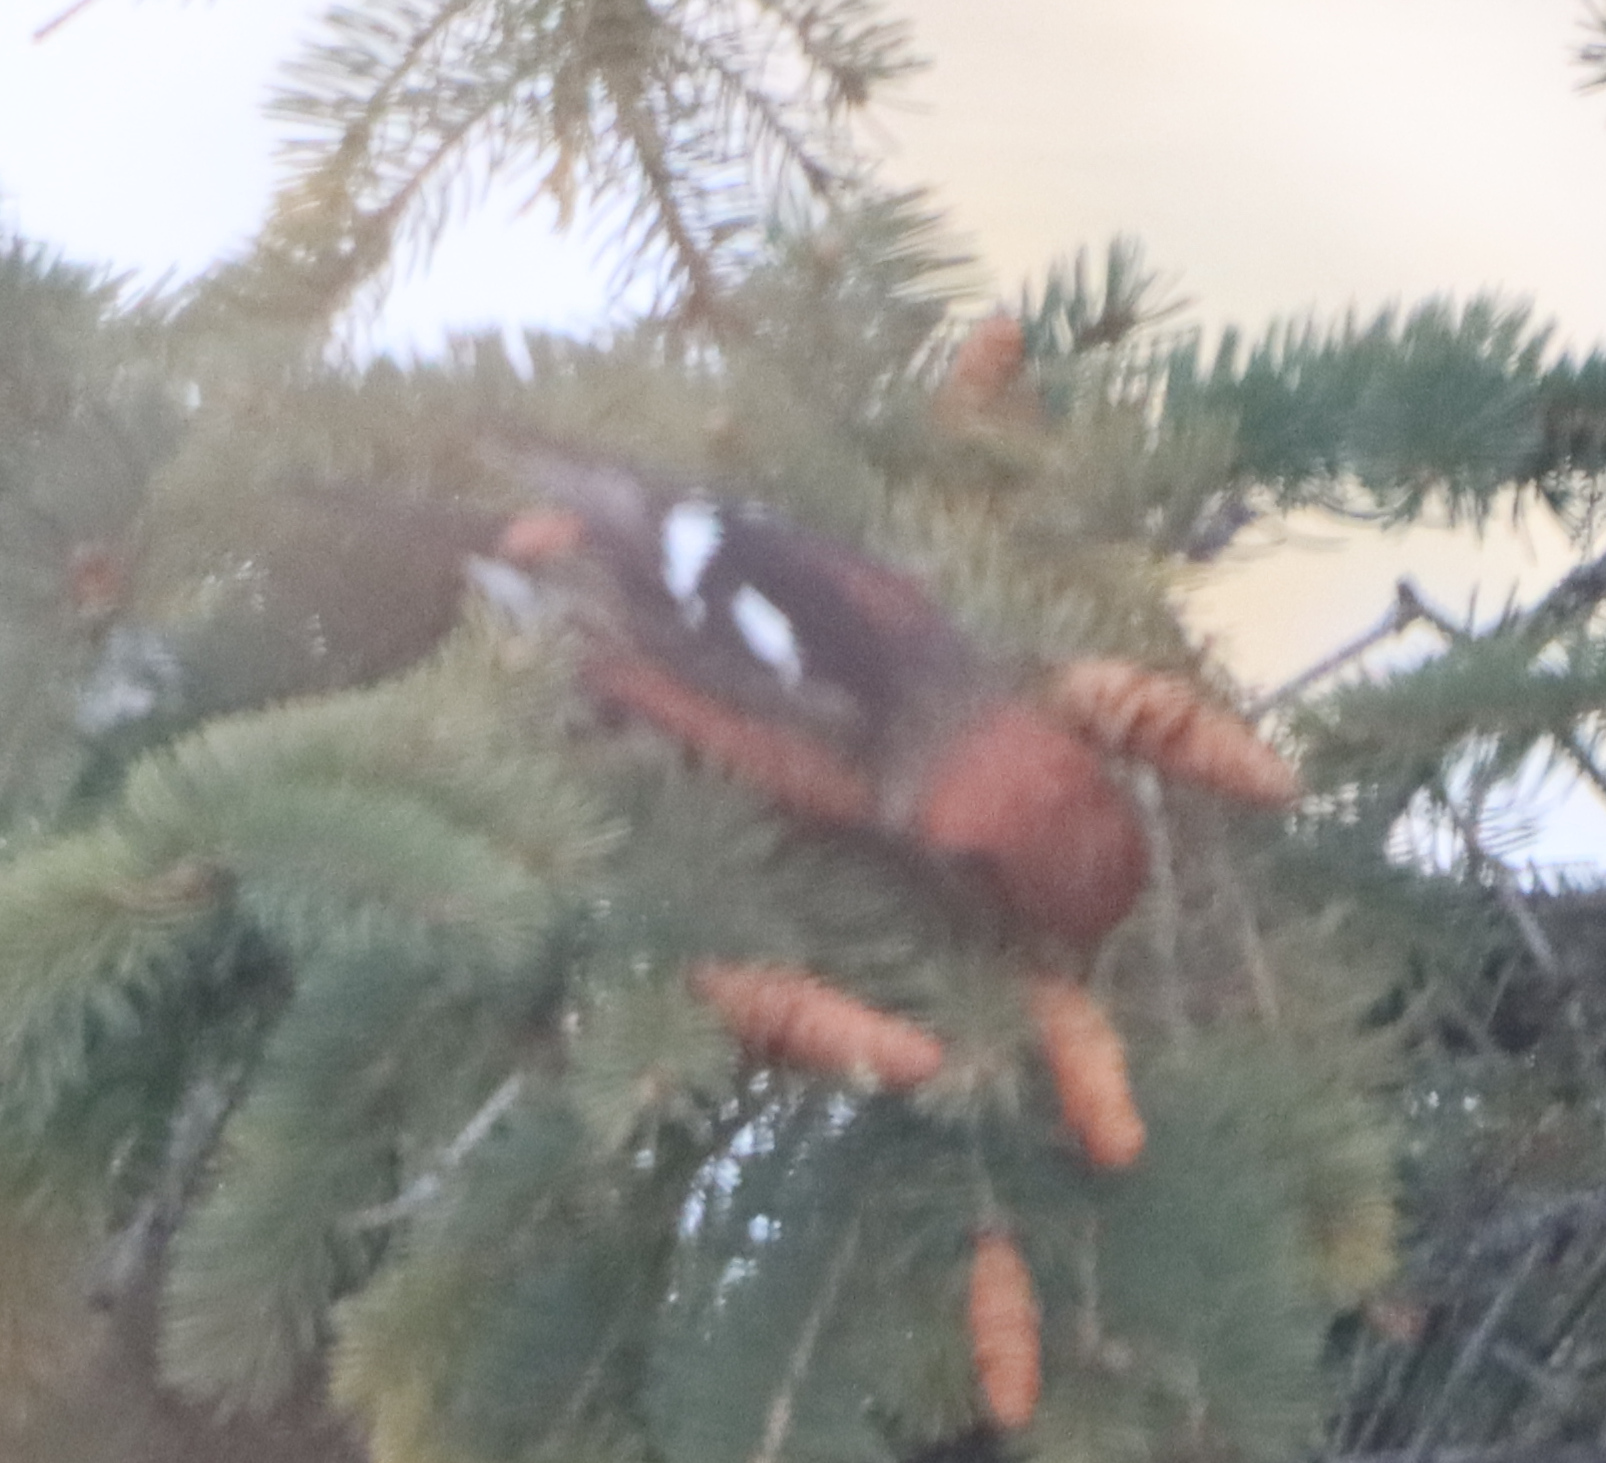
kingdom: Animalia
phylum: Chordata
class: Aves
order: Passeriformes
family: Fringillidae
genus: Loxia
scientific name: Loxia leucoptera
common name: Two-barred crossbill
